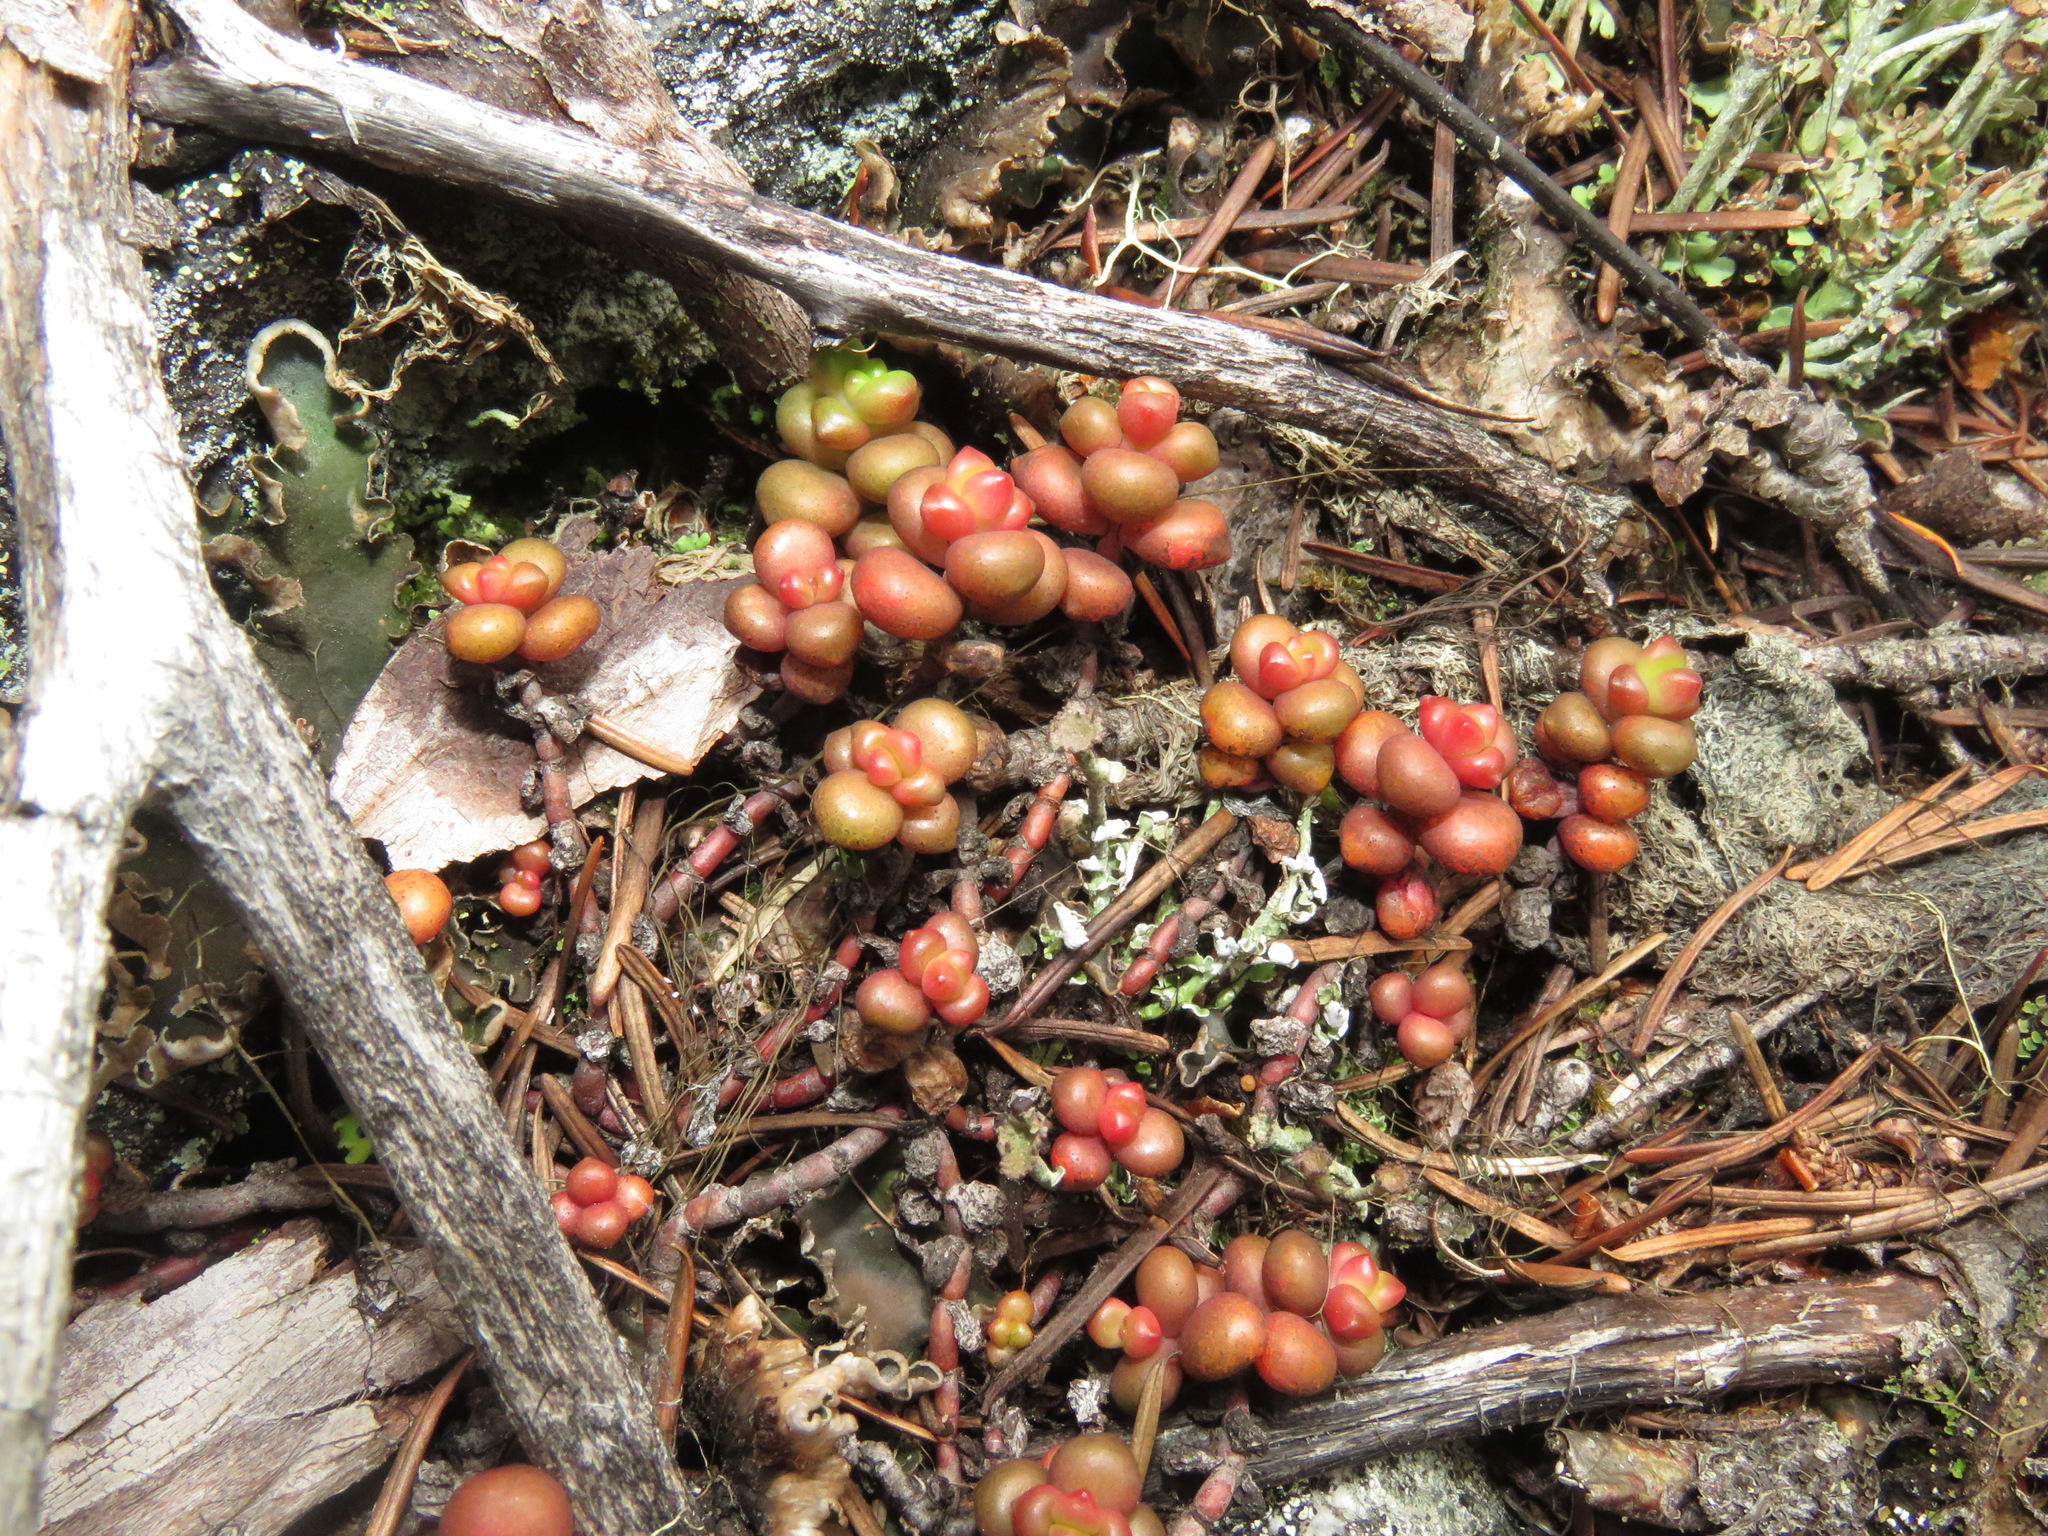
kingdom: Plantae
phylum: Tracheophyta
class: Magnoliopsida
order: Saxifragales
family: Crassulaceae
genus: Sedum
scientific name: Sedum divergens
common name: Cascade stonecrop
